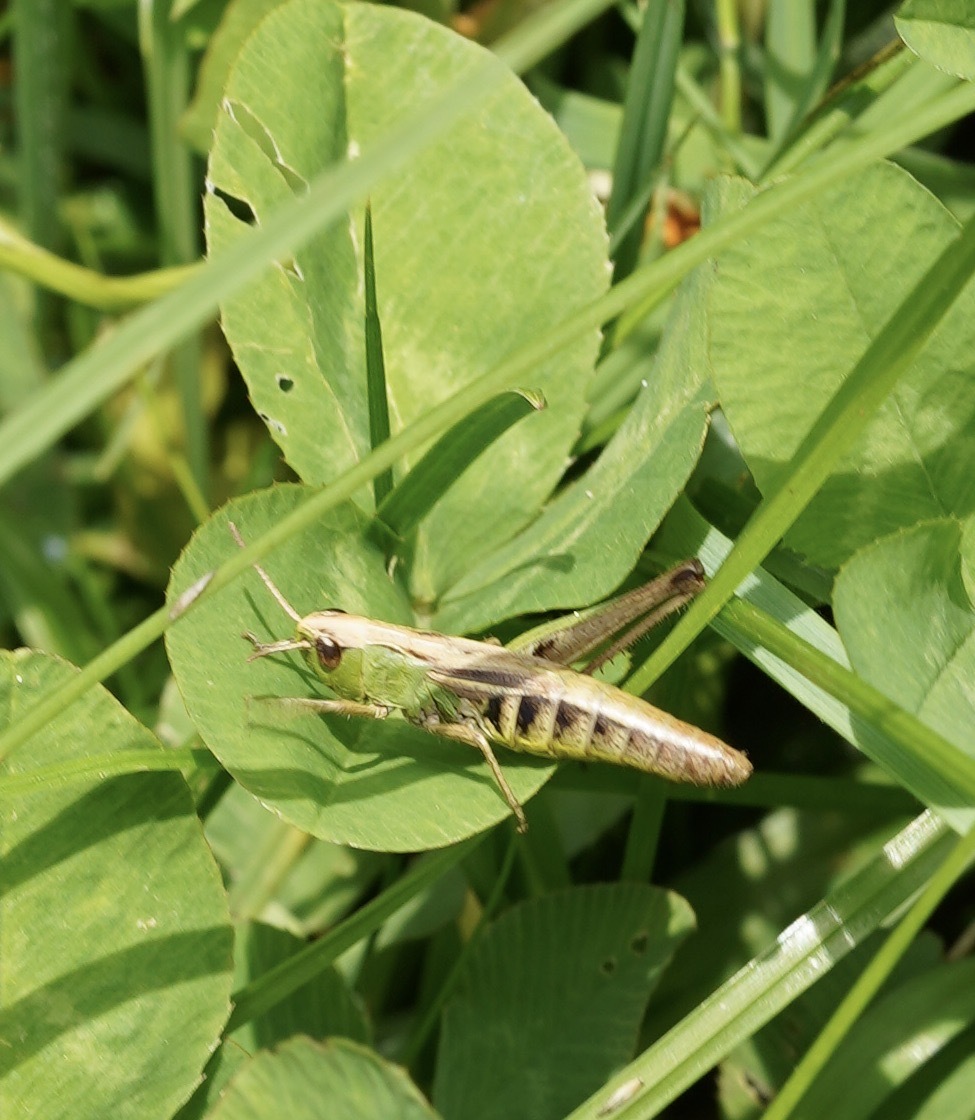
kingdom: Animalia
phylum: Arthropoda
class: Insecta
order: Orthoptera
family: Acrididae
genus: Pseudochorthippus
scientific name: Pseudochorthippus parallelus
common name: Meadow grasshopper
